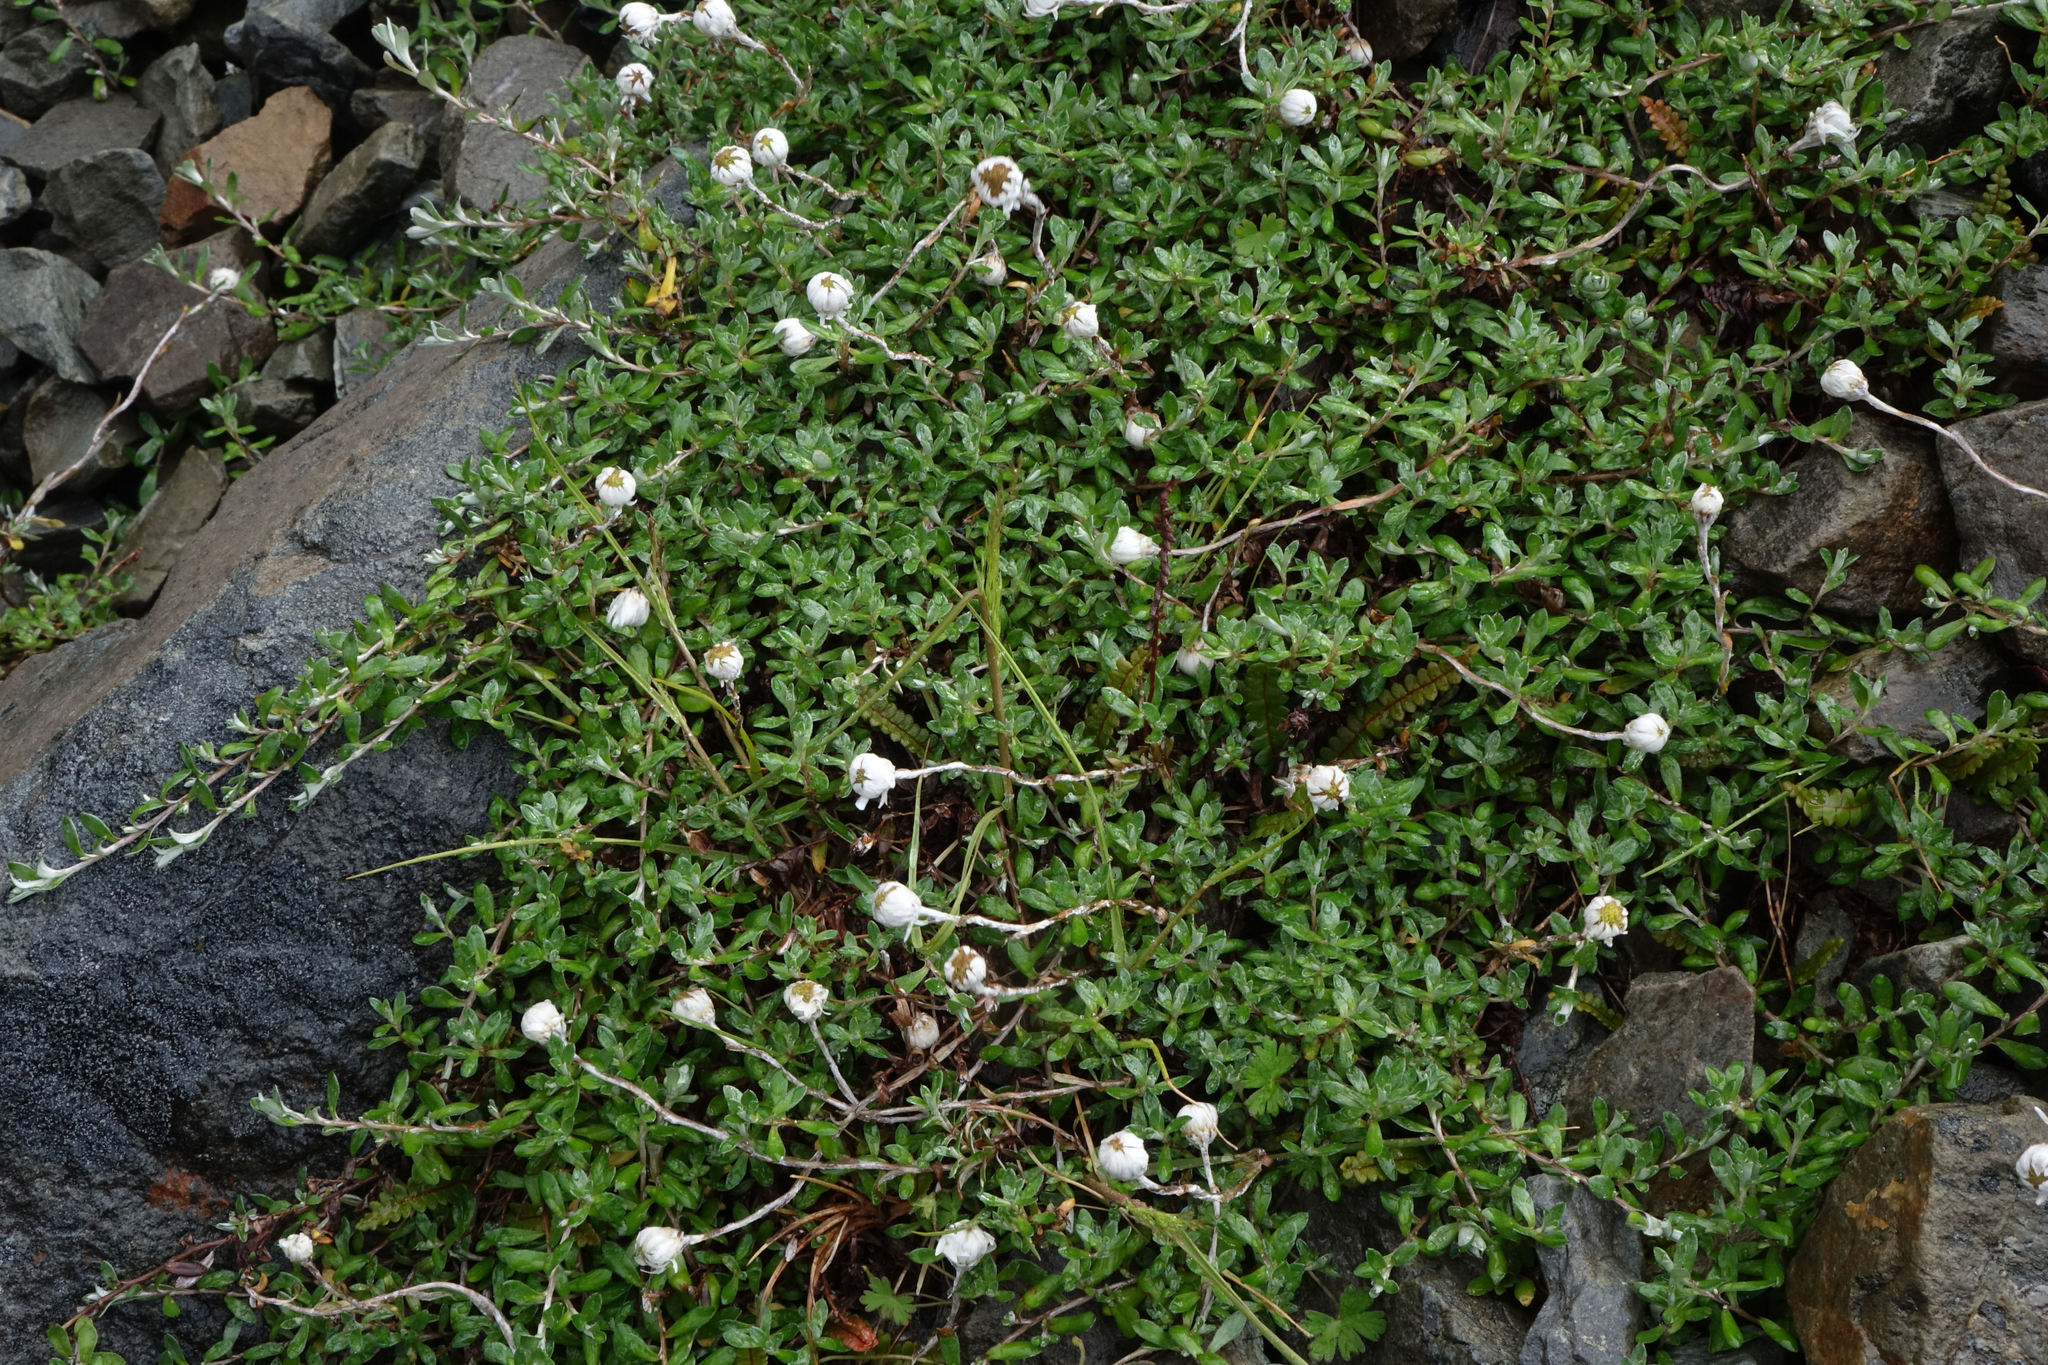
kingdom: Plantae
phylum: Tracheophyta
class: Magnoliopsida
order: Asterales
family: Asteraceae
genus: Anaphalioides
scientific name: Anaphalioides bellidioides
